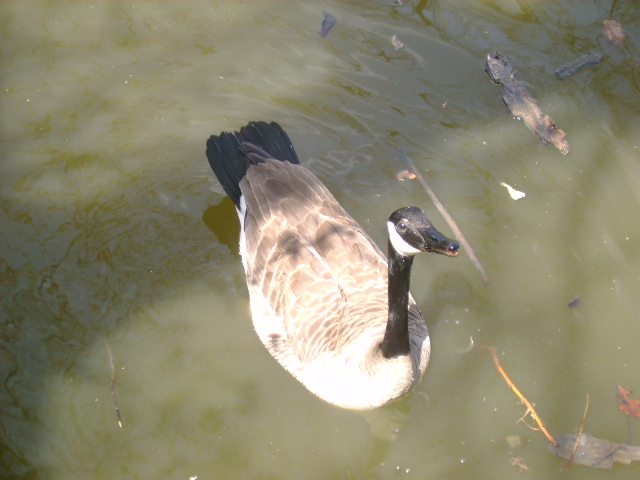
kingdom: Animalia
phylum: Chordata
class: Aves
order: Anseriformes
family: Anatidae
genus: Branta
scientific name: Branta canadensis
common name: Canada goose
